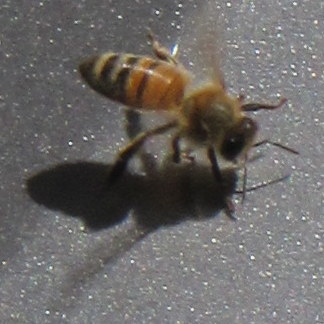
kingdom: Animalia
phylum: Arthropoda
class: Insecta
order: Hymenoptera
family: Apidae
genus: Apis
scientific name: Apis mellifera
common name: Honey bee
